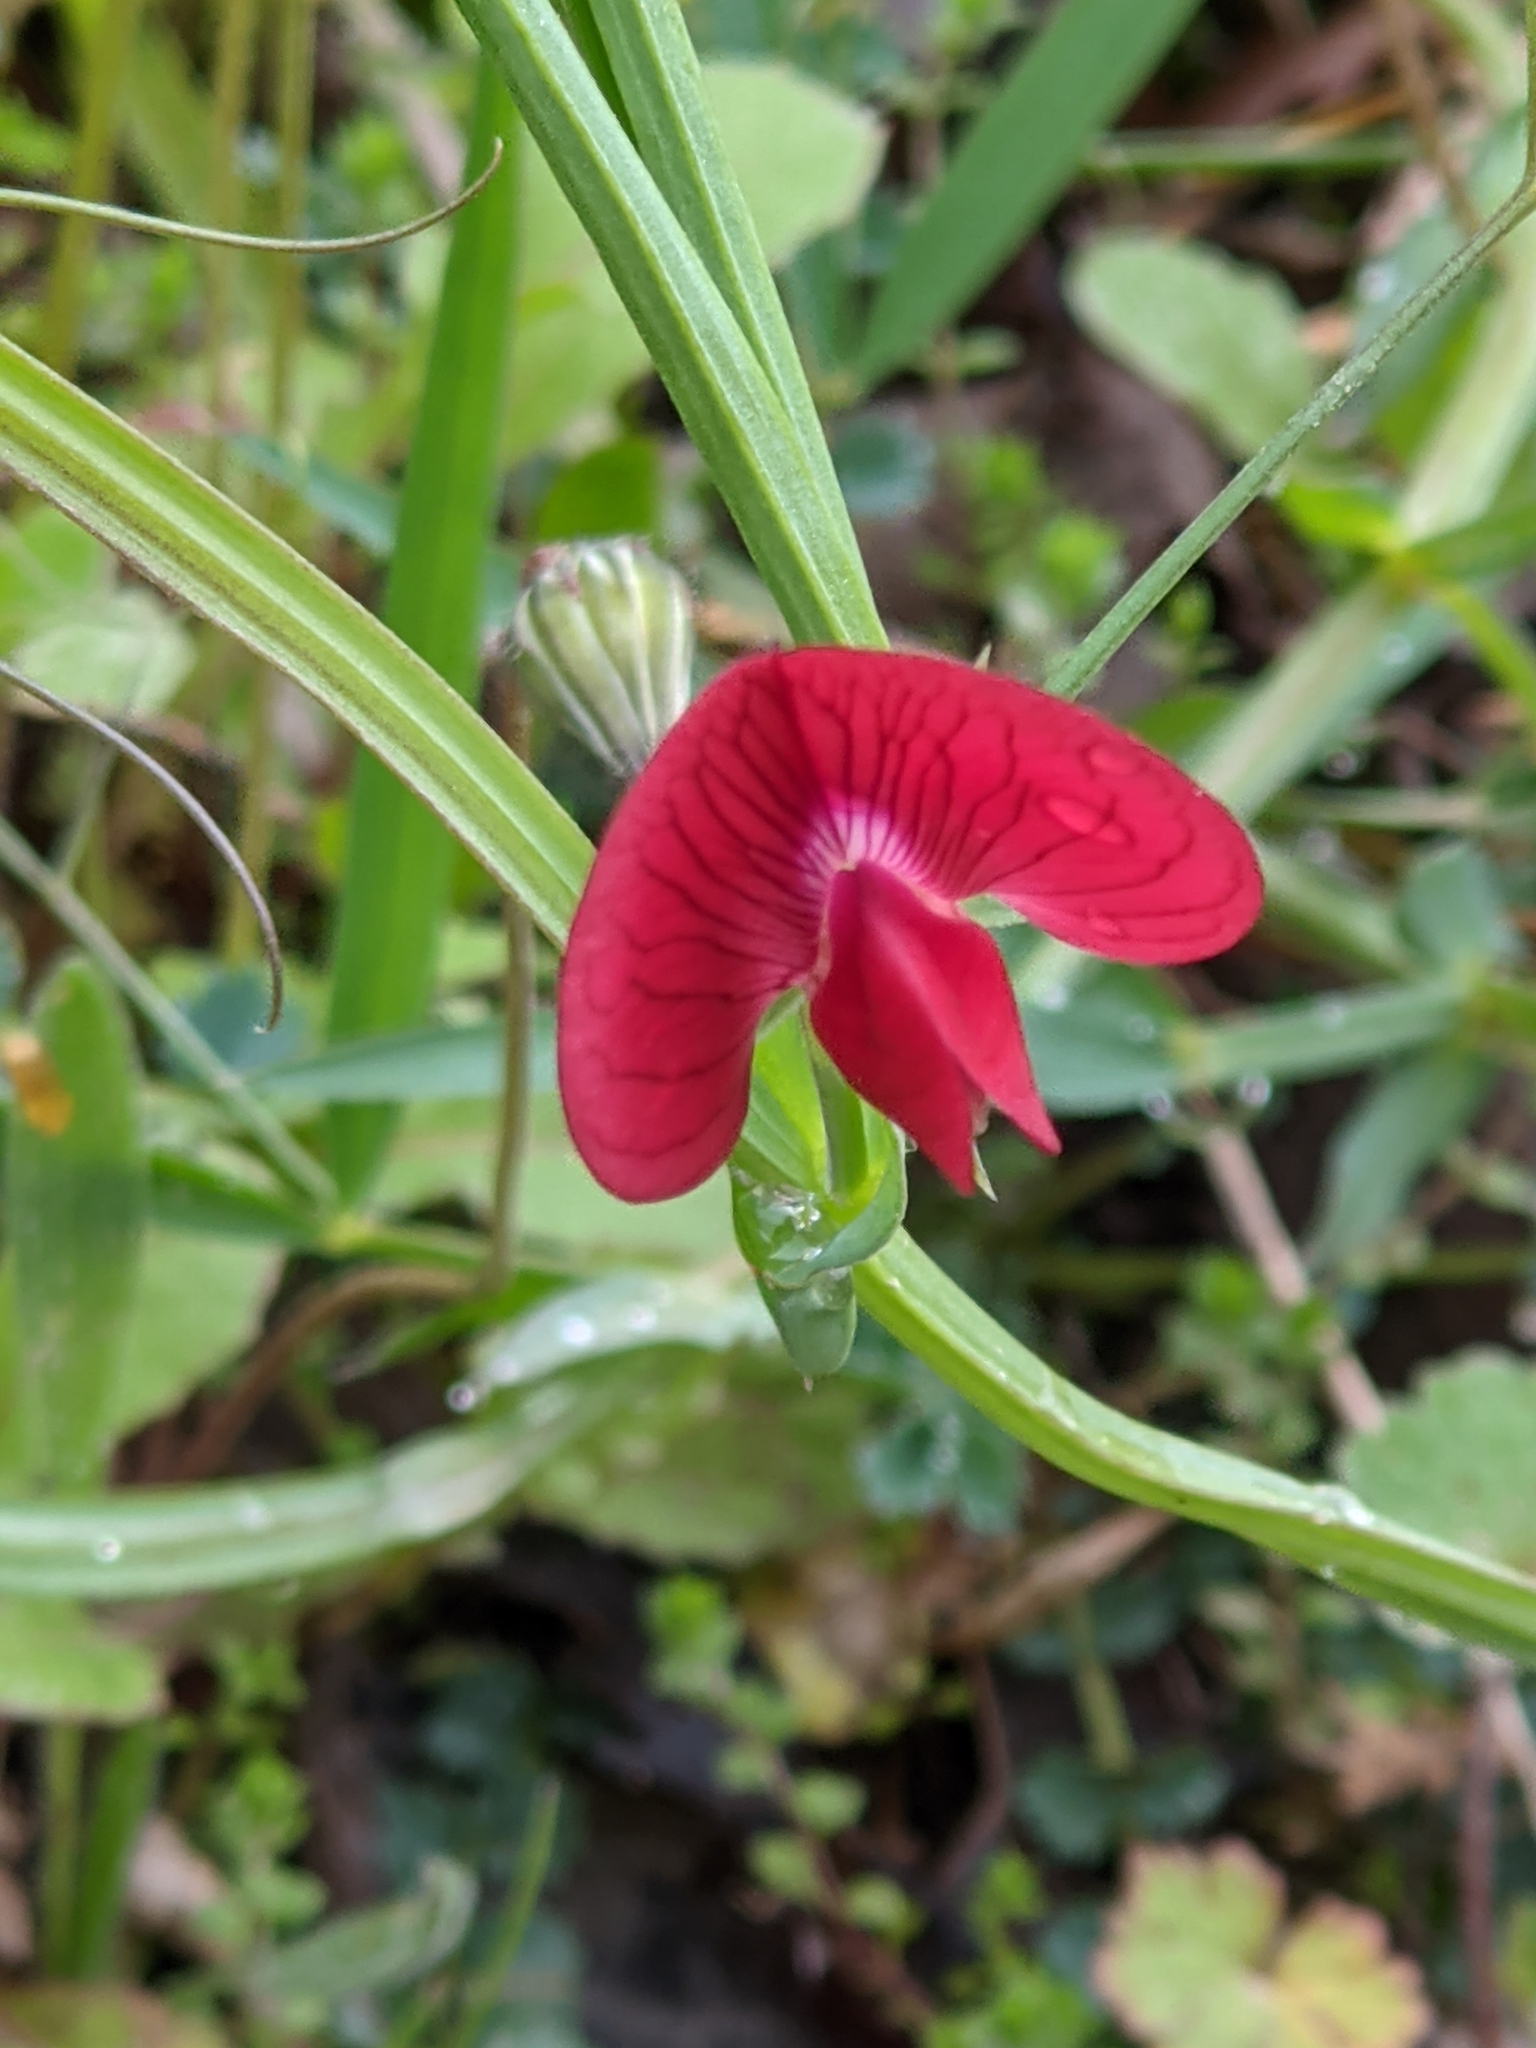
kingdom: Plantae
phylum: Tracheophyta
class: Magnoliopsida
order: Fabales
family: Fabaceae
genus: Lathyrus
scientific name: Lathyrus cicera
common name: Red vetchling
